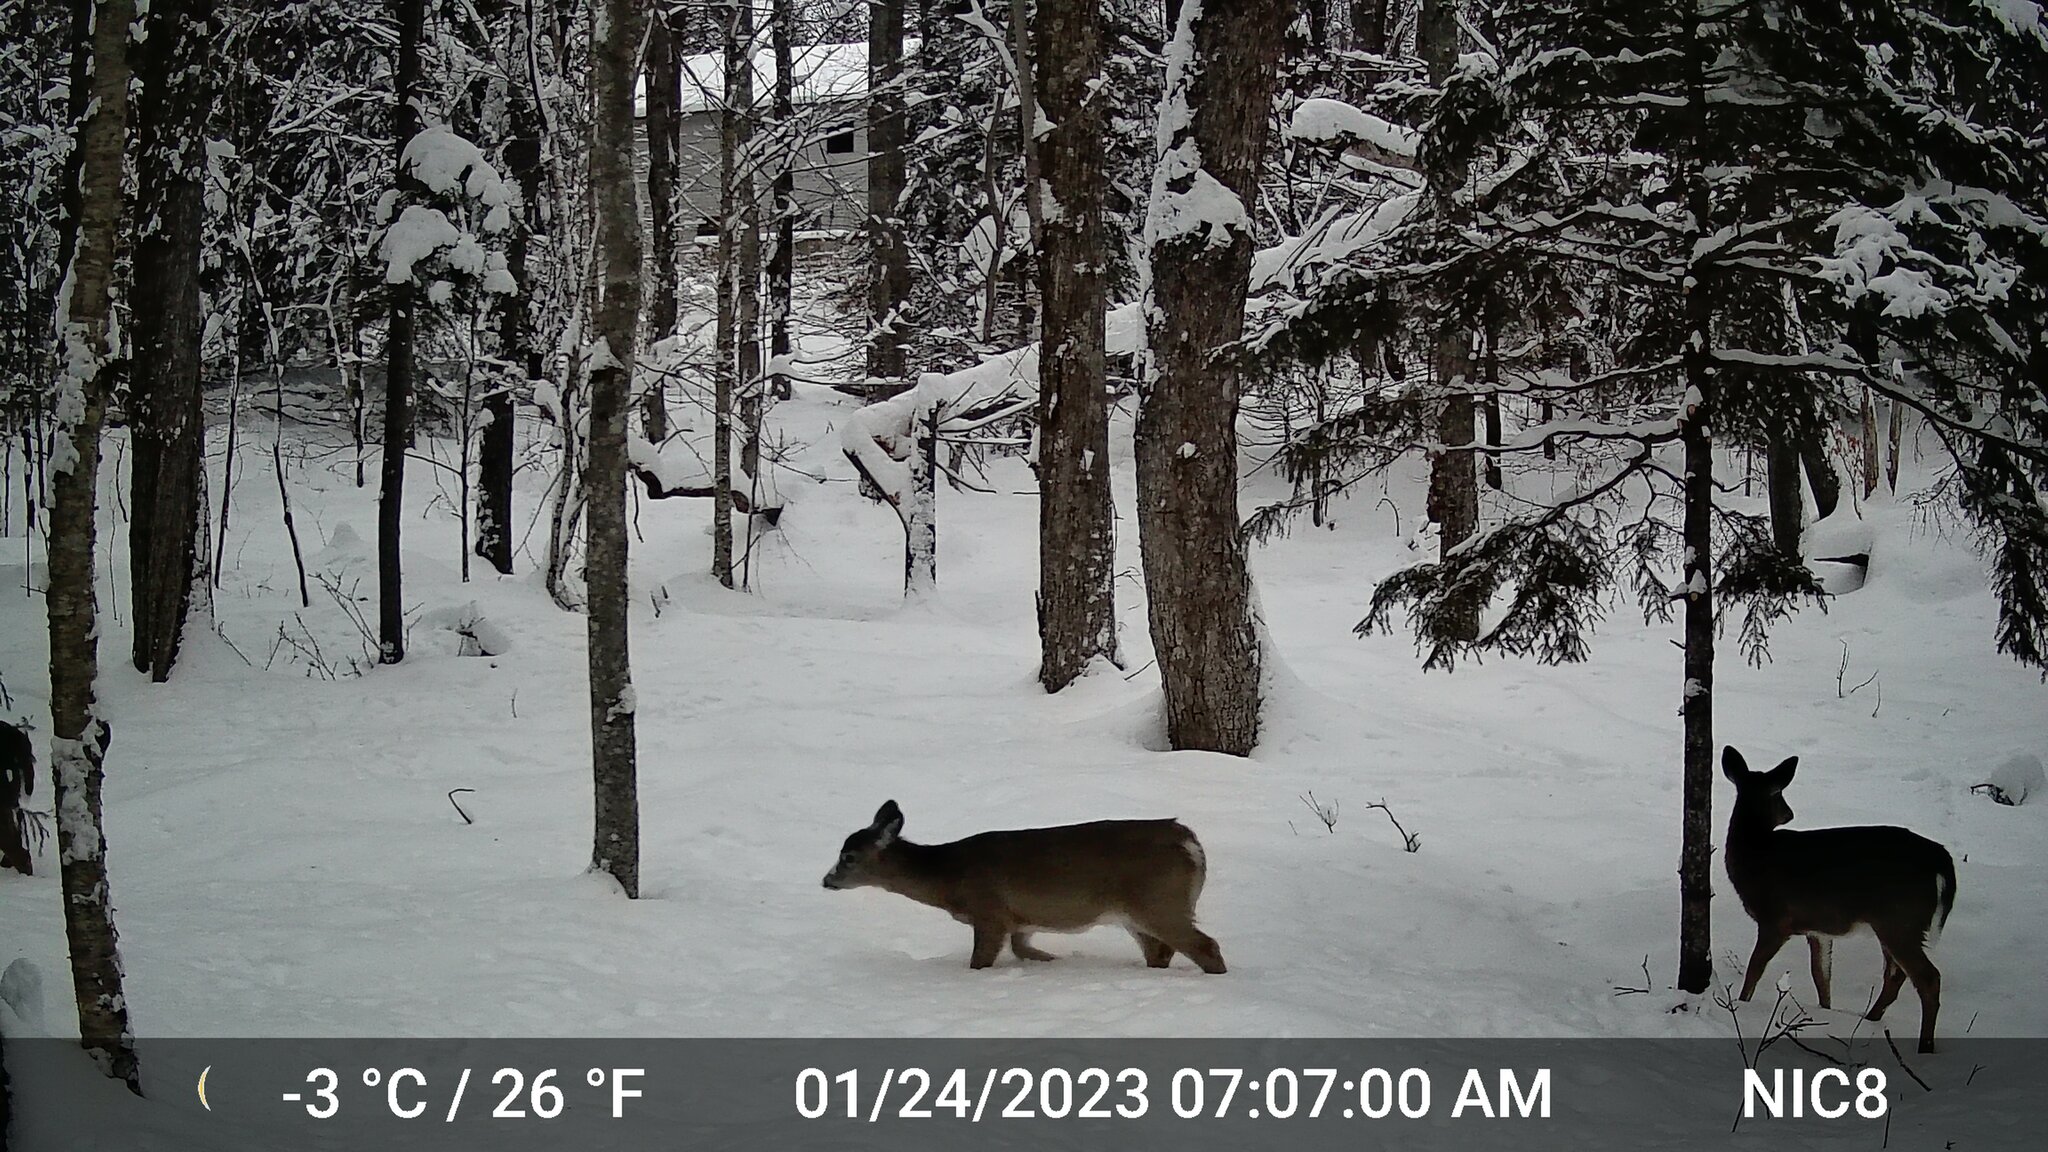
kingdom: Animalia
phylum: Chordata
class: Mammalia
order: Artiodactyla
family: Cervidae
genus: Odocoileus
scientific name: Odocoileus virginianus
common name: White-tailed deer
